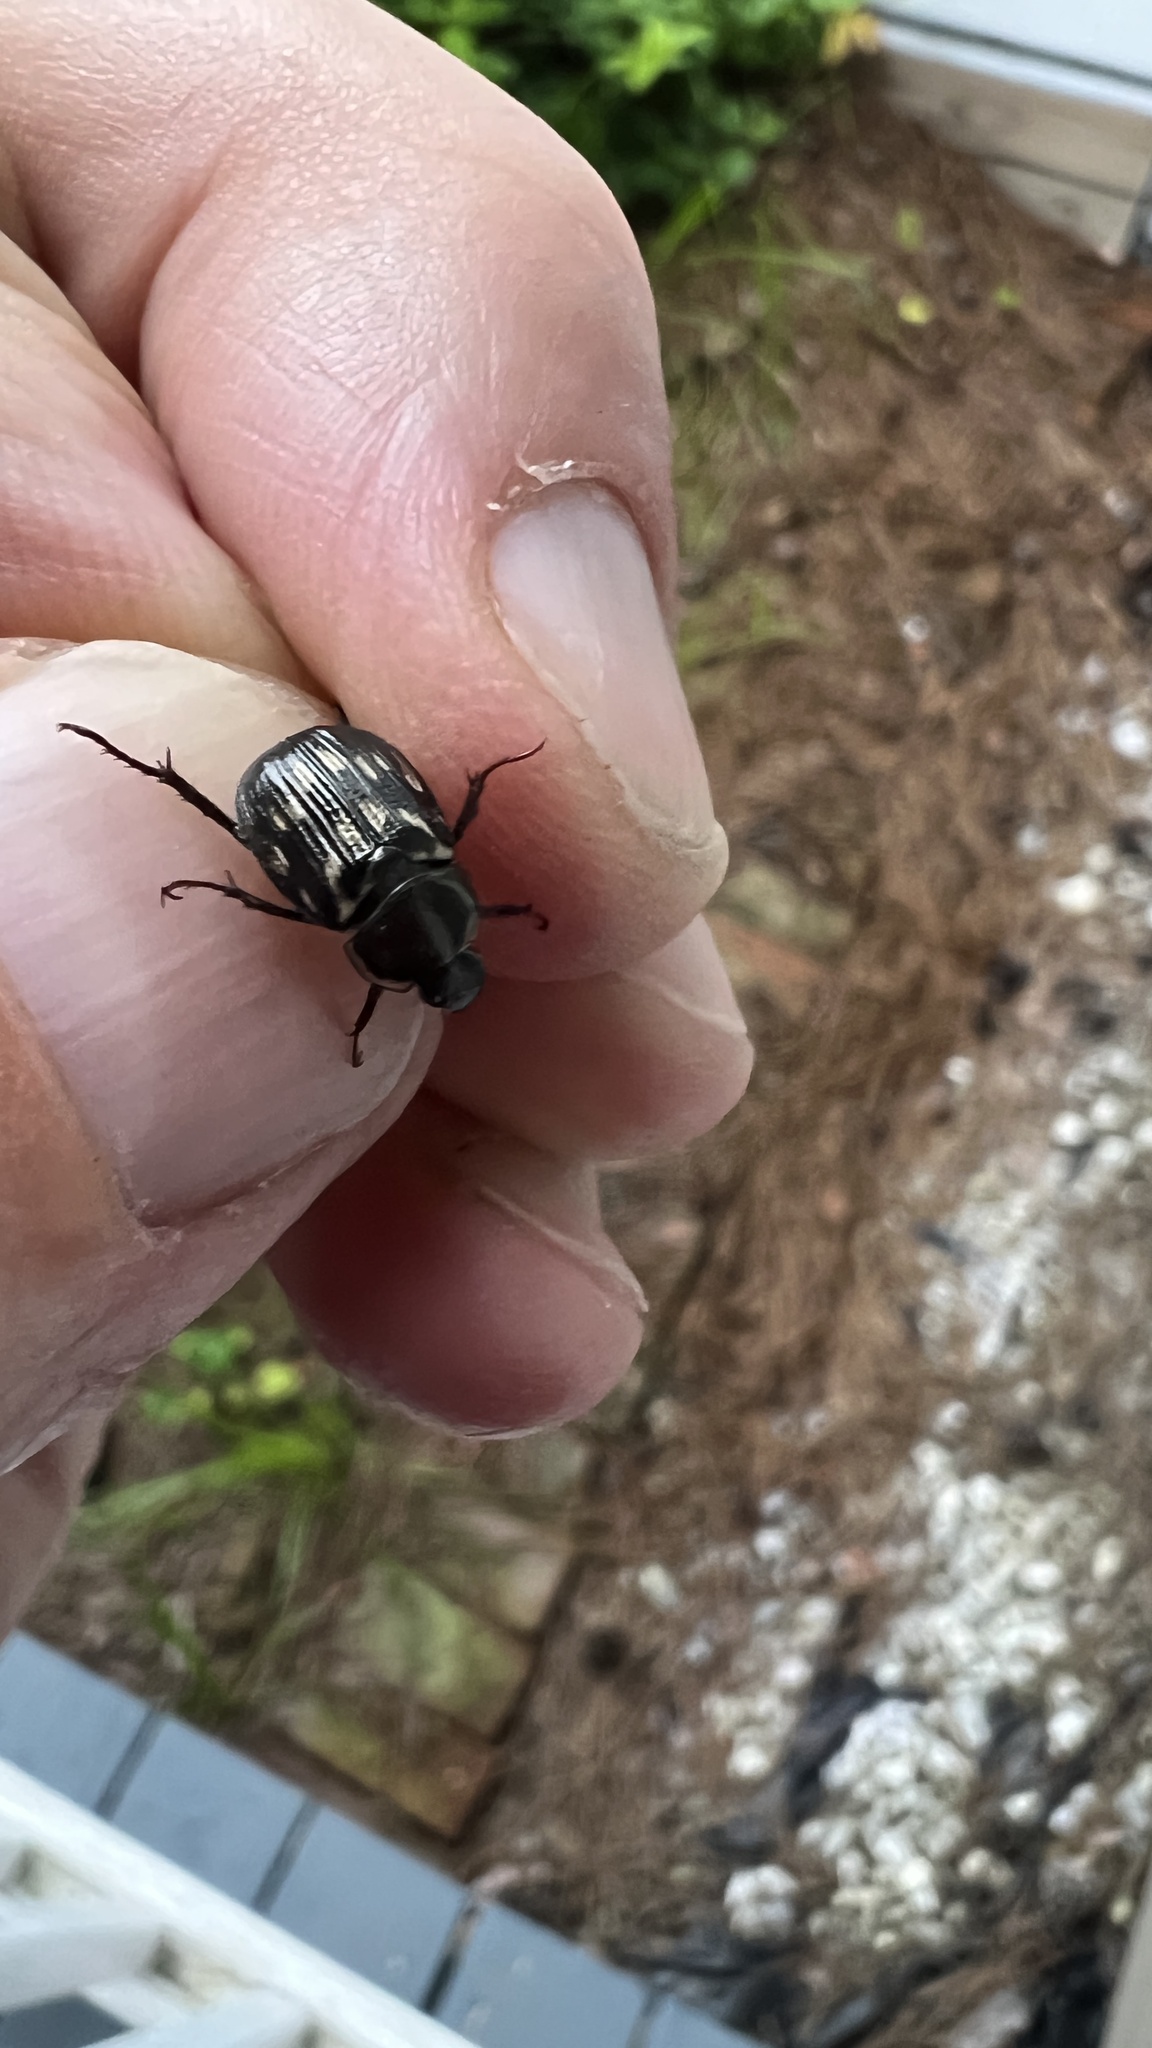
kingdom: Animalia
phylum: Arthropoda
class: Insecta
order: Coleoptera
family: Scarabaeidae
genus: Exomala
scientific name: Exomala orientalis
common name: Oriental beetle
